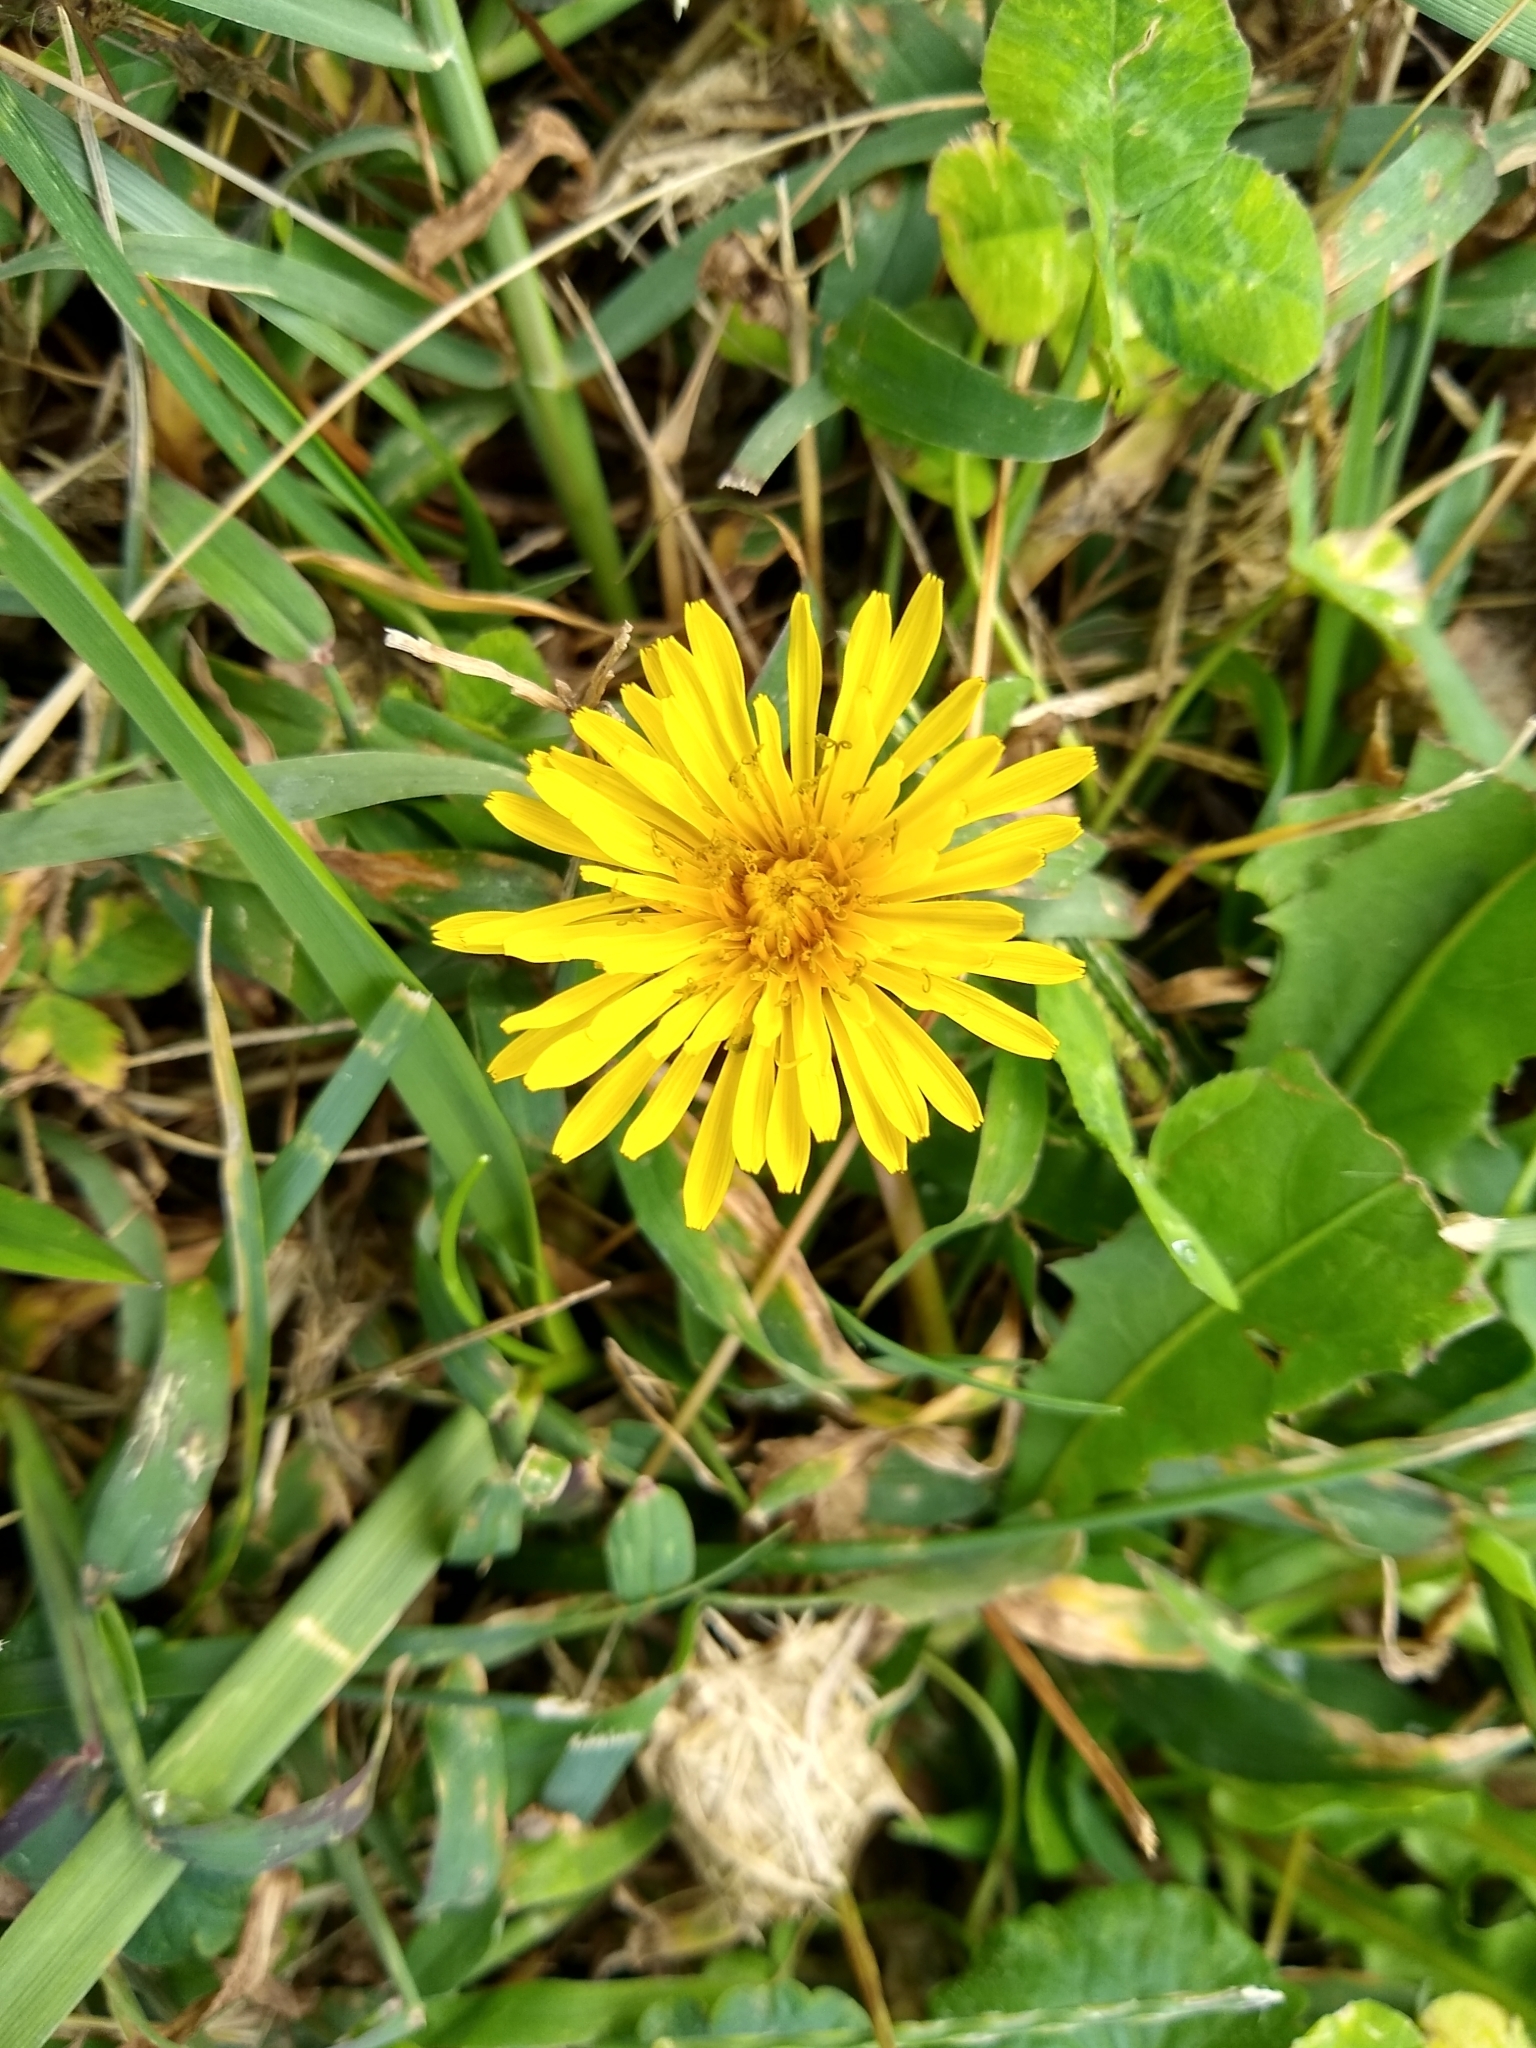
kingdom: Plantae
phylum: Tracheophyta
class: Magnoliopsida
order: Asterales
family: Asteraceae
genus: Taraxacum
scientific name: Taraxacum officinale
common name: Common dandelion
